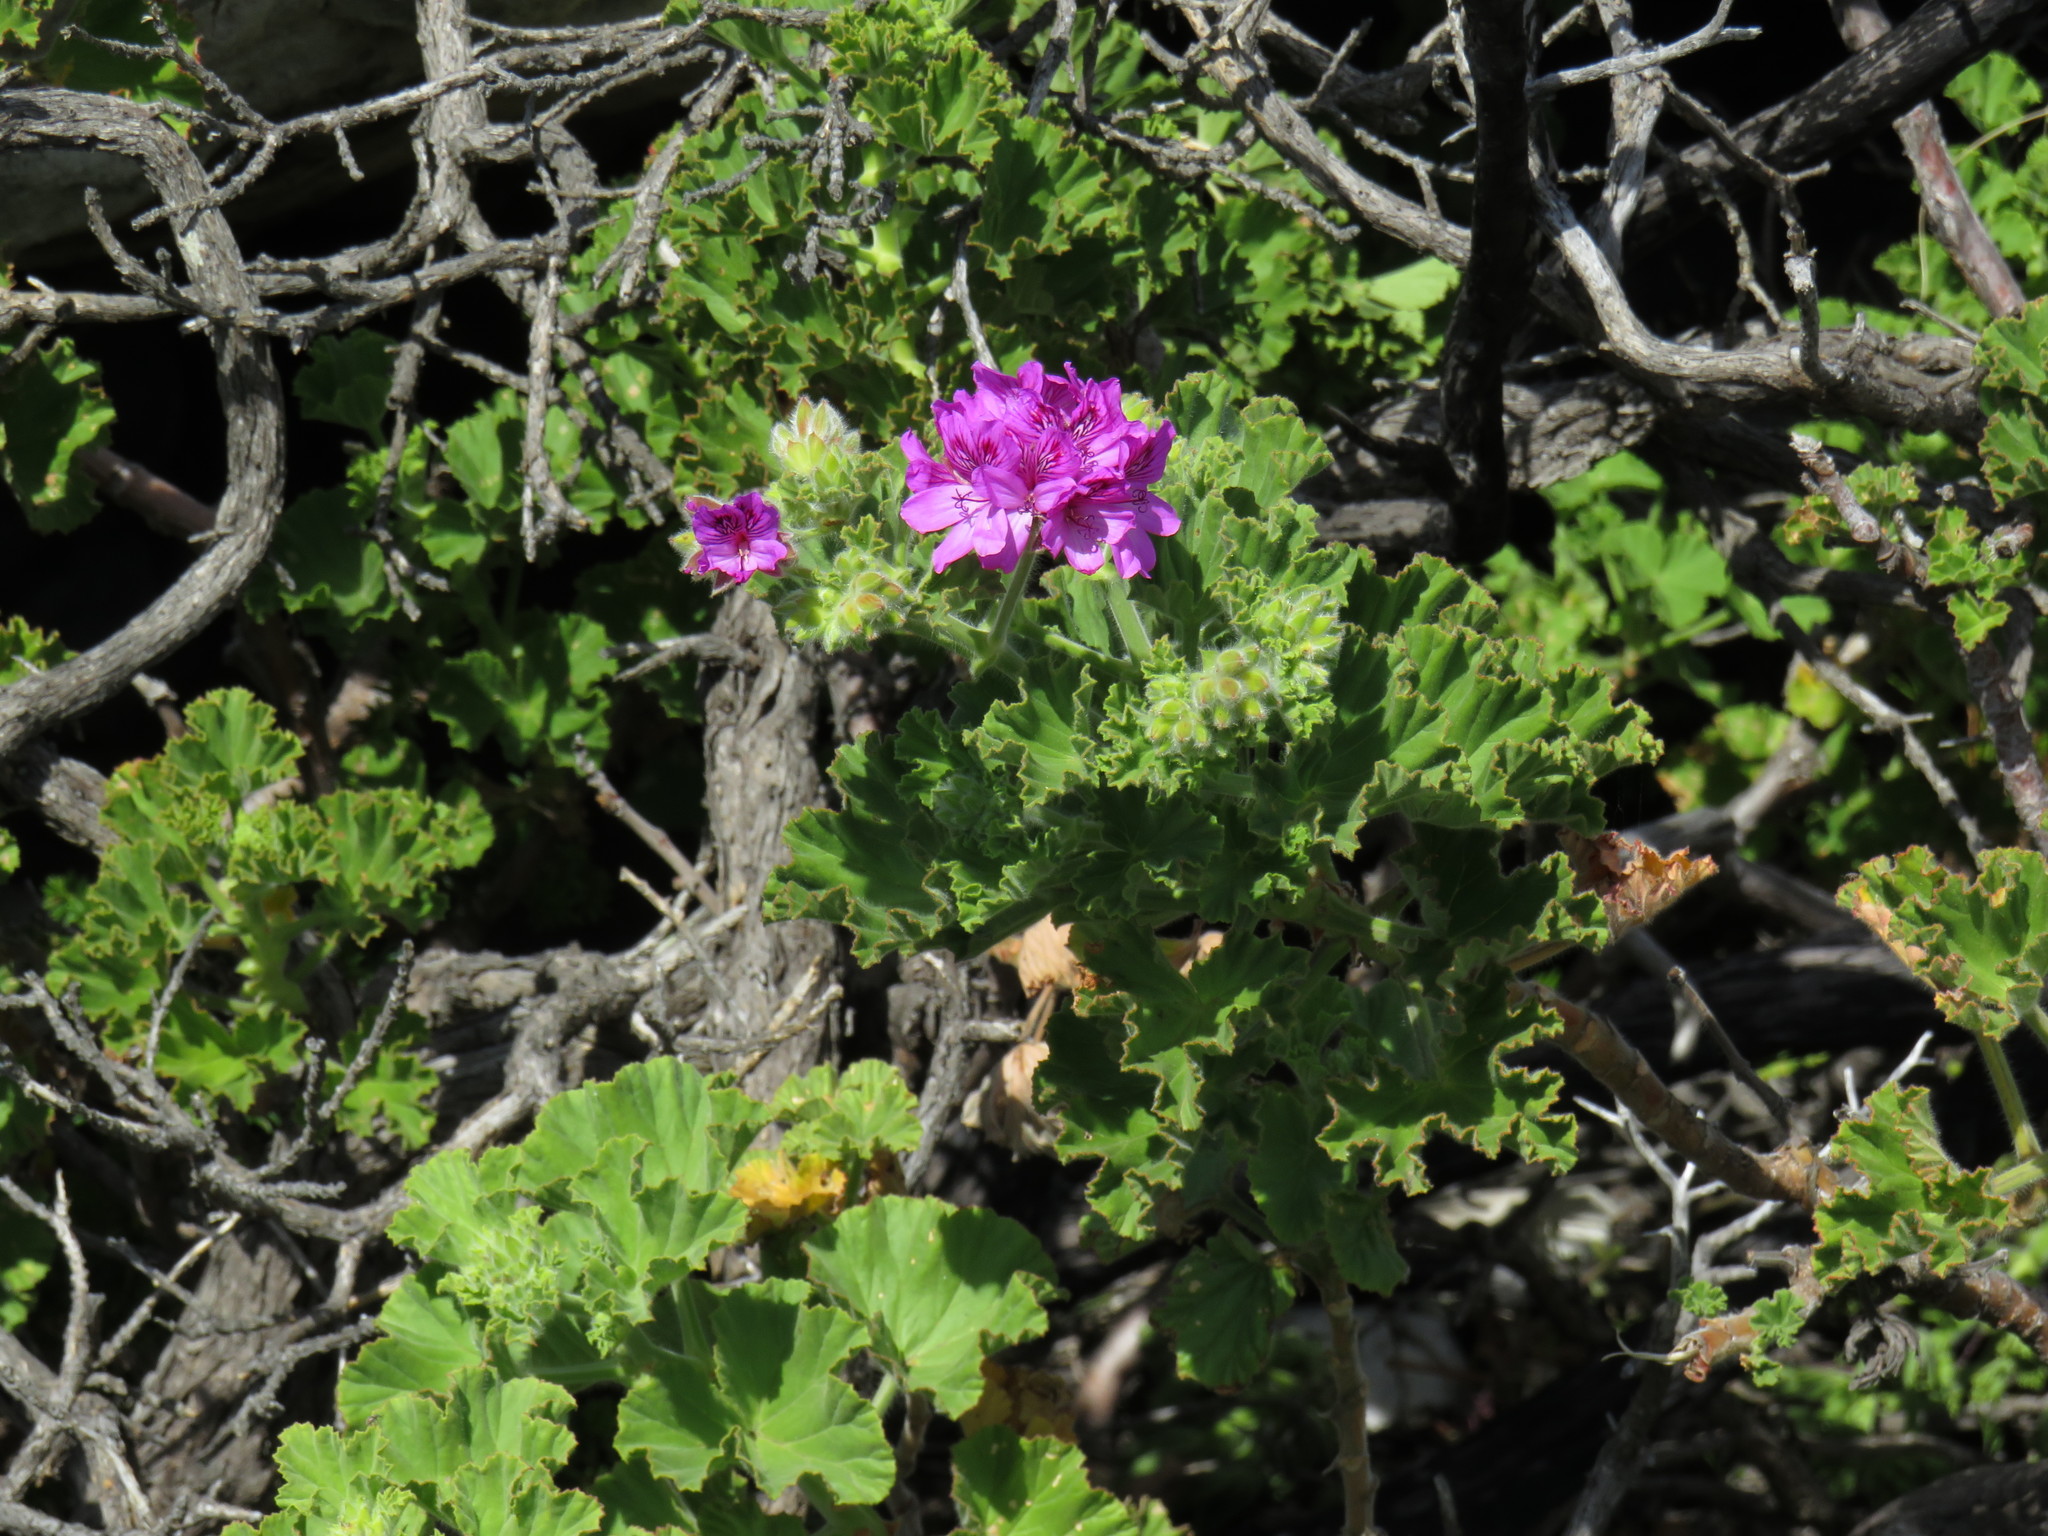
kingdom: Plantae
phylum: Tracheophyta
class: Magnoliopsida
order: Geraniales
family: Geraniaceae
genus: Pelargonium
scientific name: Pelargonium cucullatum
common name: Tree pelargonium
